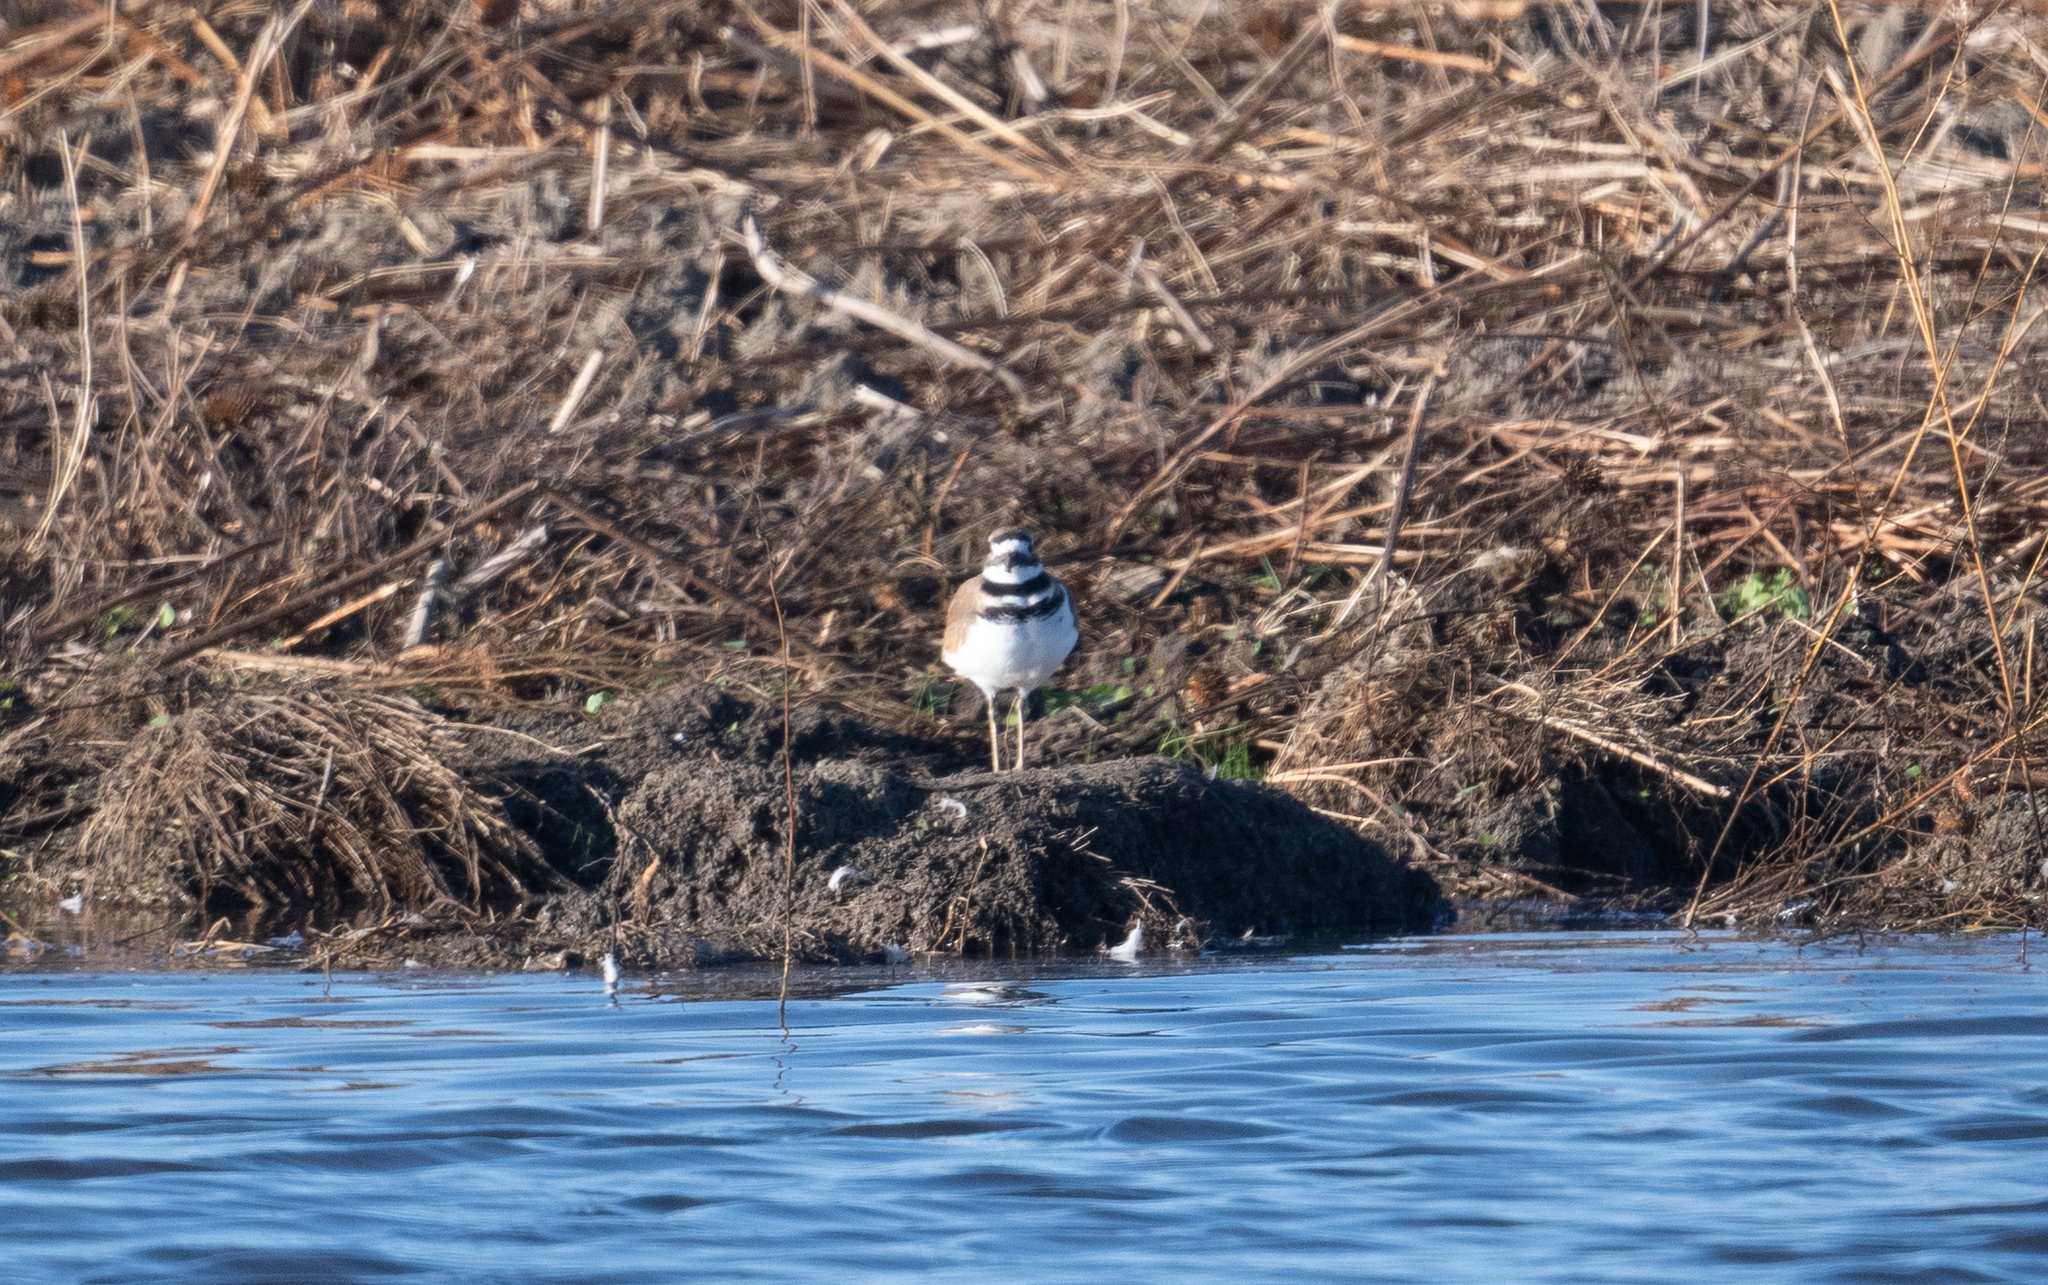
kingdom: Animalia
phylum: Chordata
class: Aves
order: Charadriiformes
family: Charadriidae
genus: Charadrius
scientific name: Charadrius vociferus
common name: Killdeer
